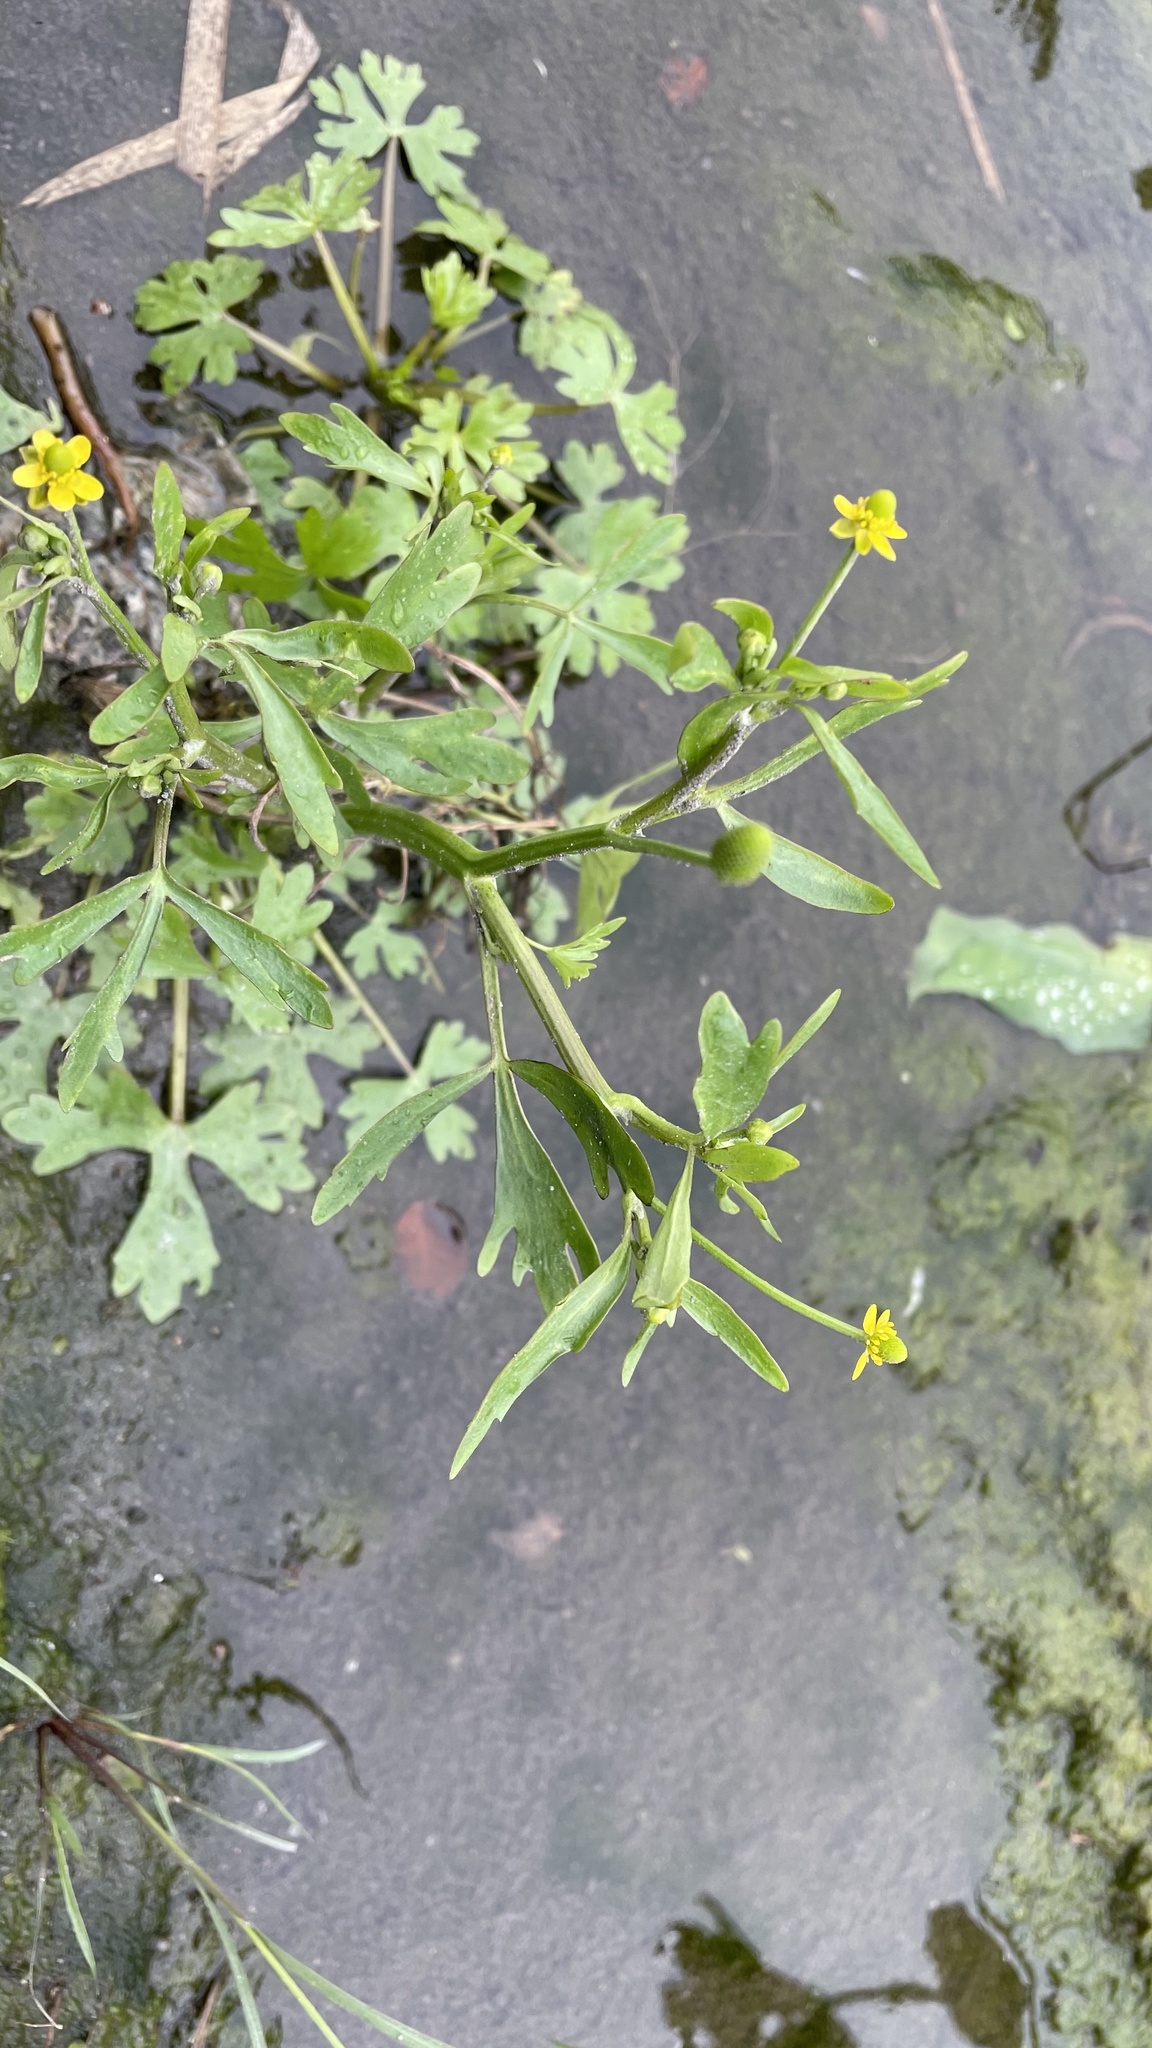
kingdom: Plantae
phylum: Tracheophyta
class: Magnoliopsida
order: Ranunculales
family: Ranunculaceae
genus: Ranunculus
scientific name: Ranunculus sceleratus
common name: Celery-leaved buttercup
